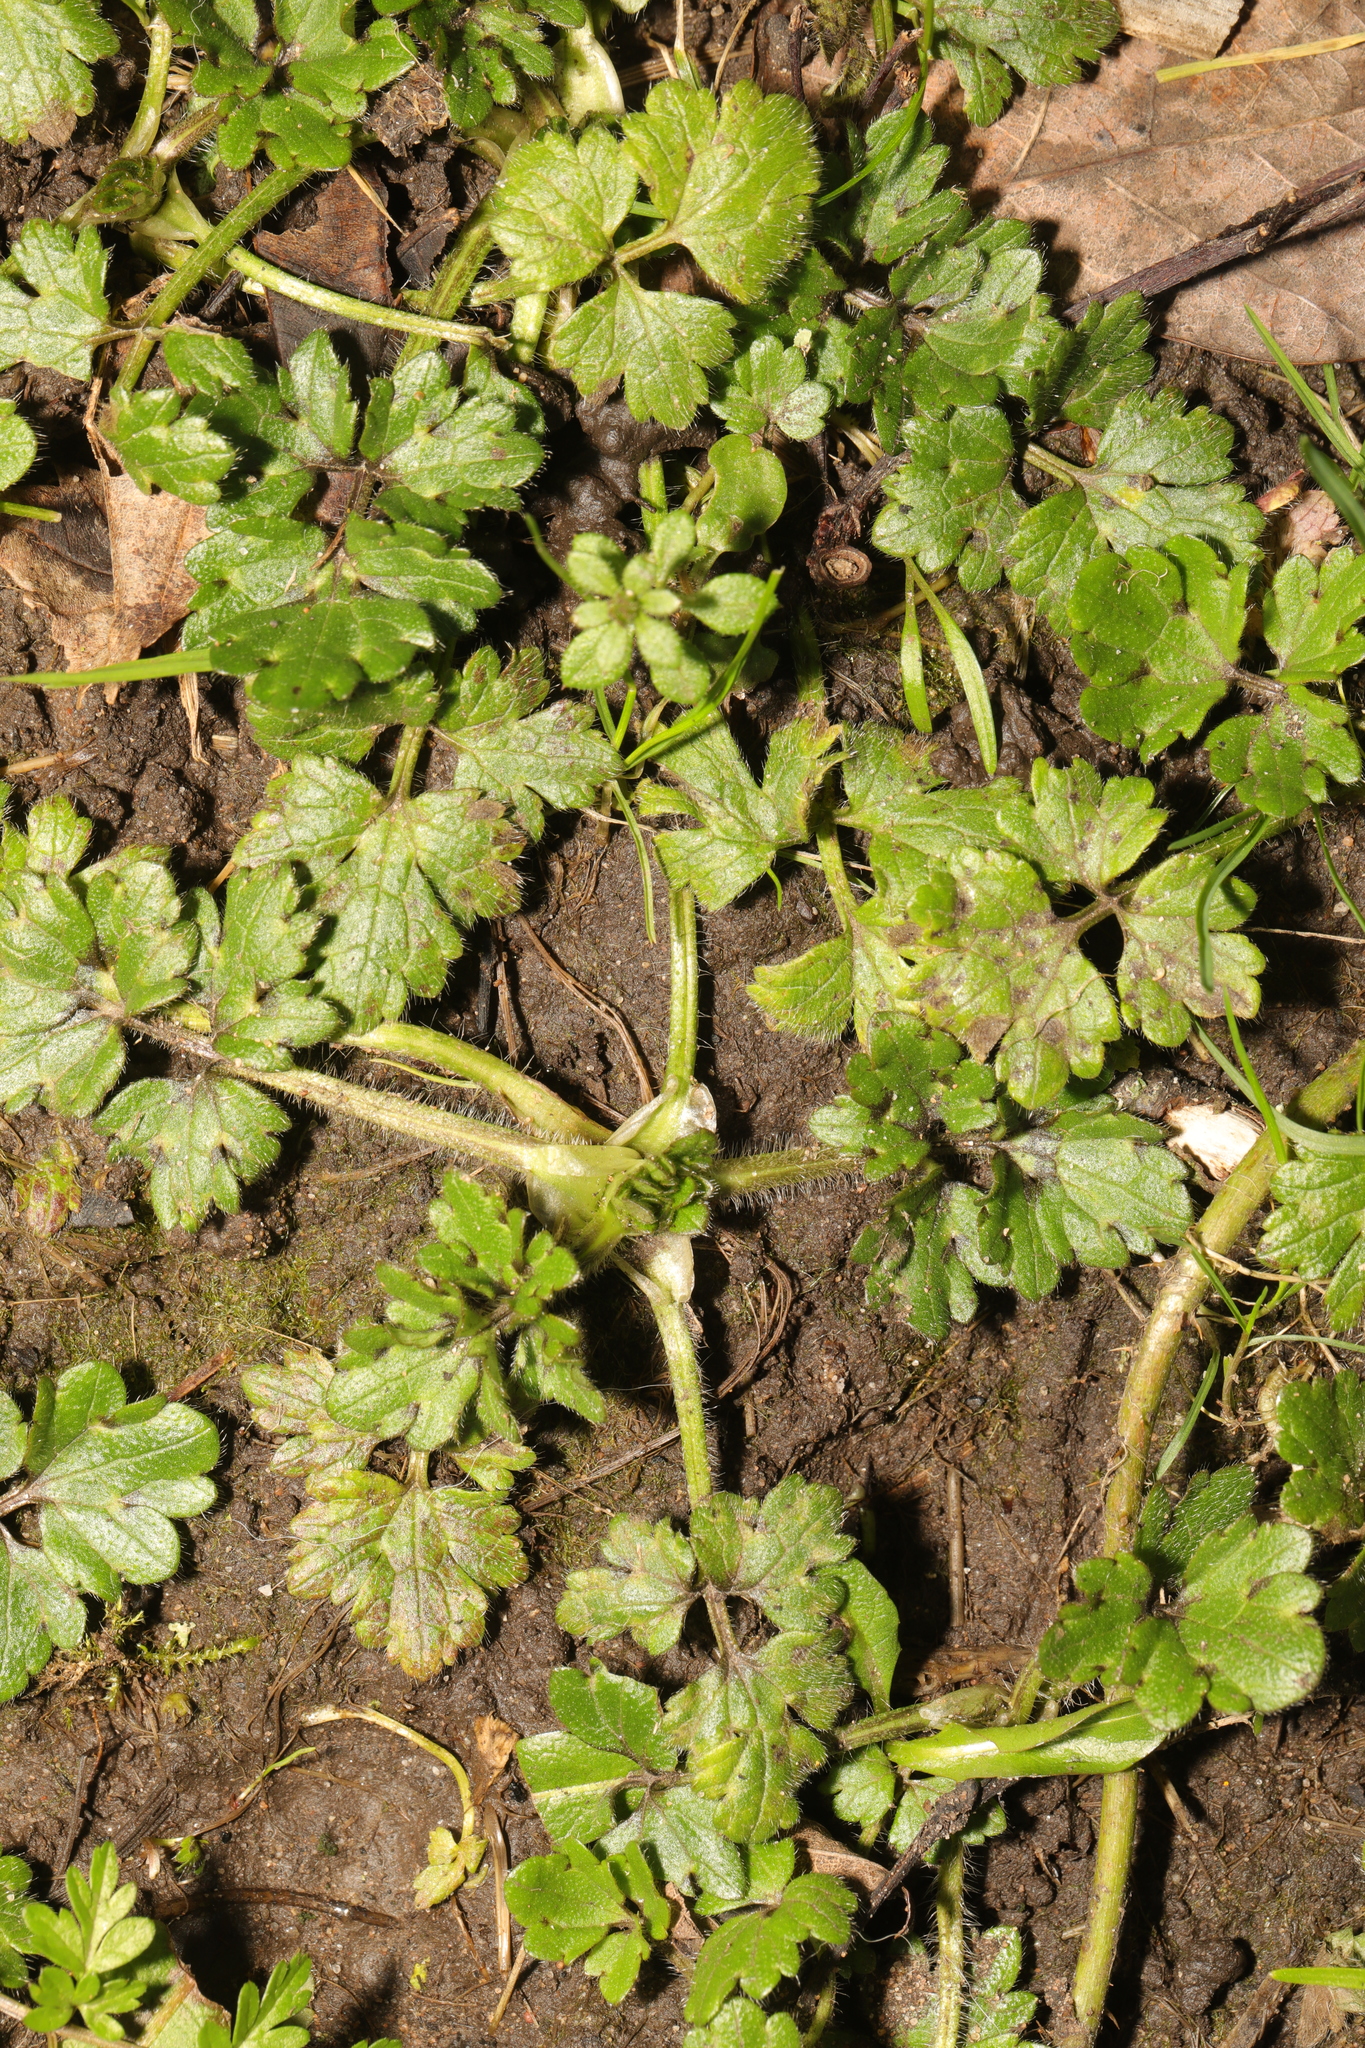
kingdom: Plantae
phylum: Tracheophyta
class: Magnoliopsida
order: Ranunculales
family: Ranunculaceae
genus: Ranunculus
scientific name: Ranunculus repens
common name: Creeping buttercup
